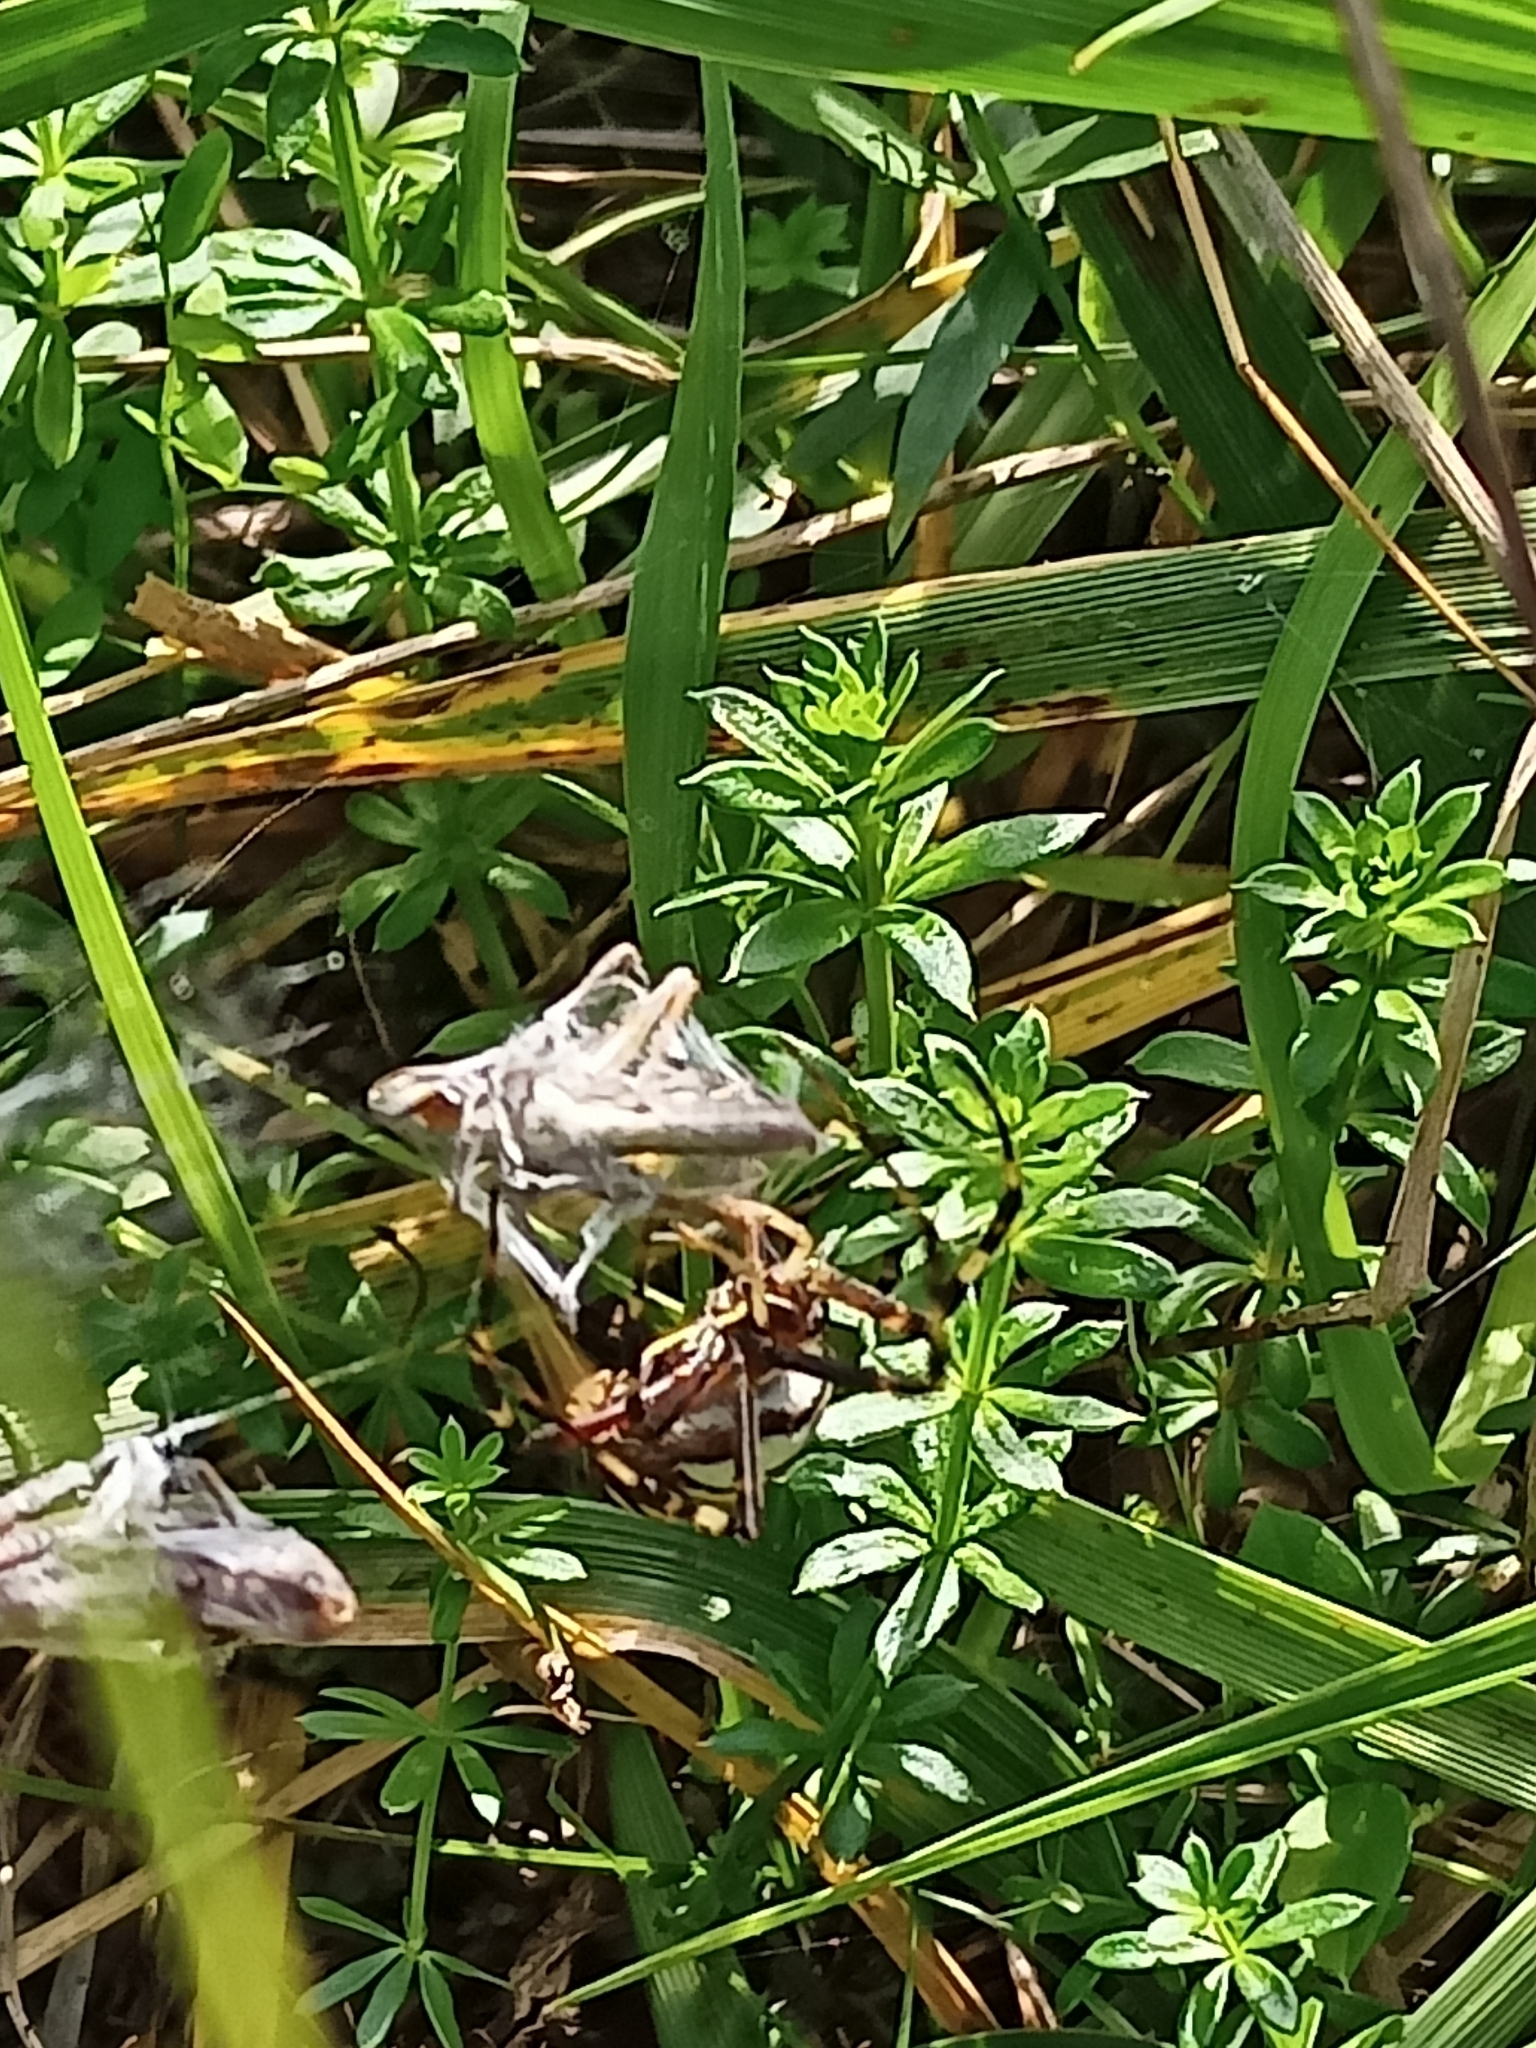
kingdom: Animalia
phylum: Arthropoda
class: Arachnida
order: Araneae
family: Araneidae
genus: Argiope
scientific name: Argiope bruennichi
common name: Wasp spider
